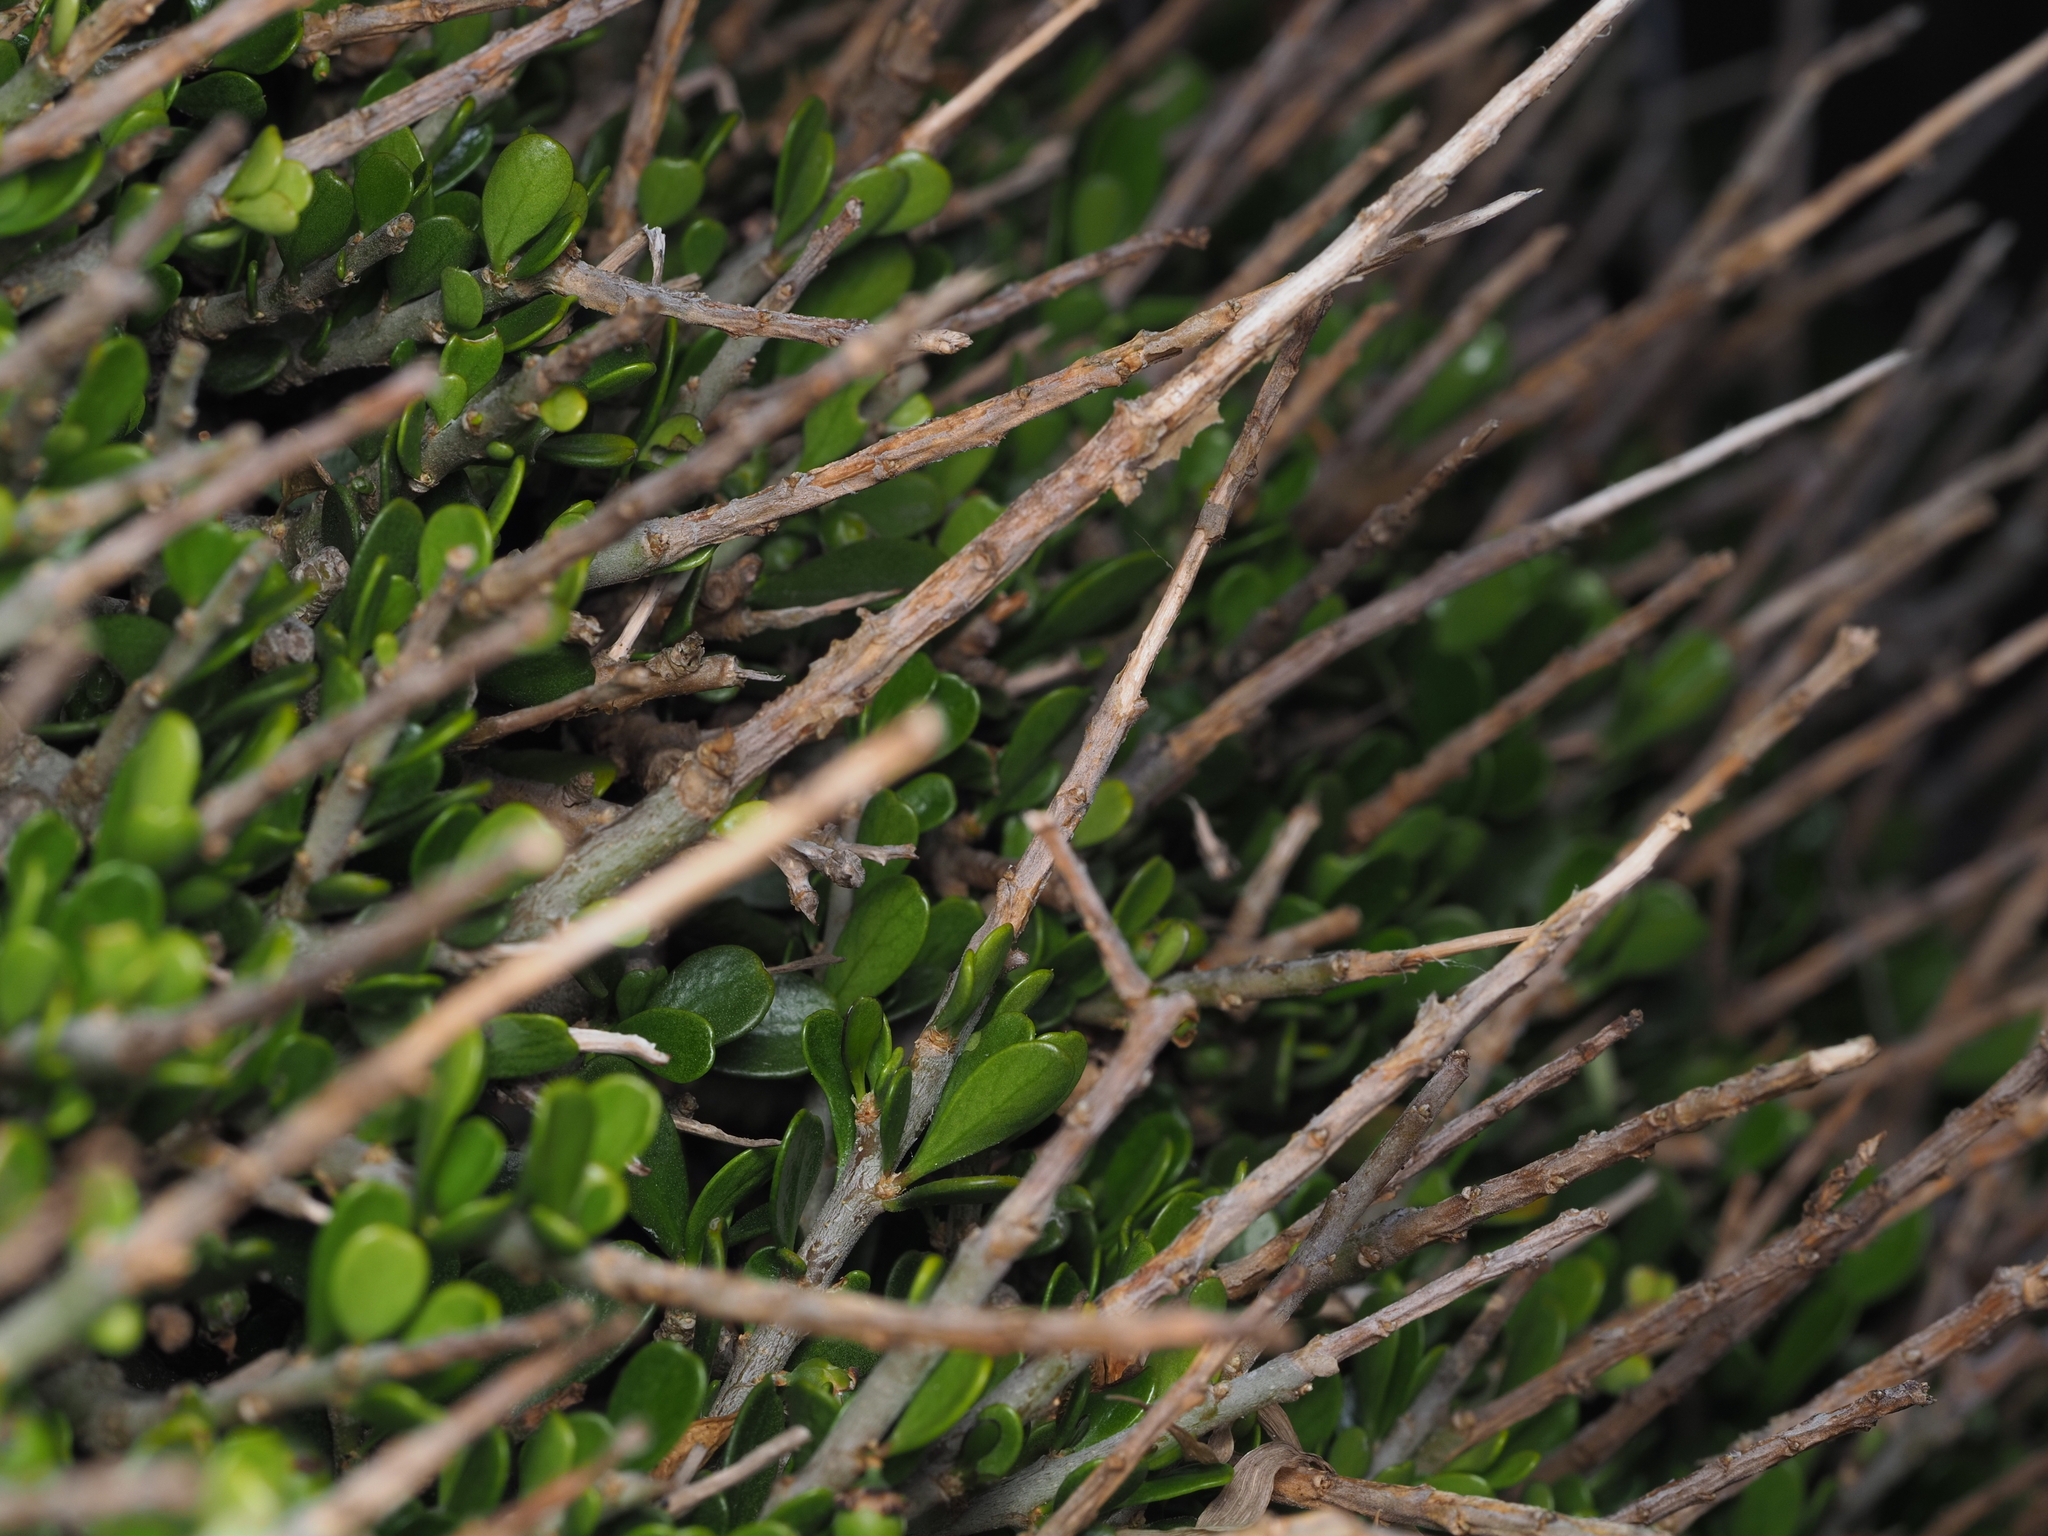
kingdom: Plantae
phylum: Tracheophyta
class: Magnoliopsida
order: Malpighiales
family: Violaceae
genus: Melicytus
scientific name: Melicytus crassifolius
